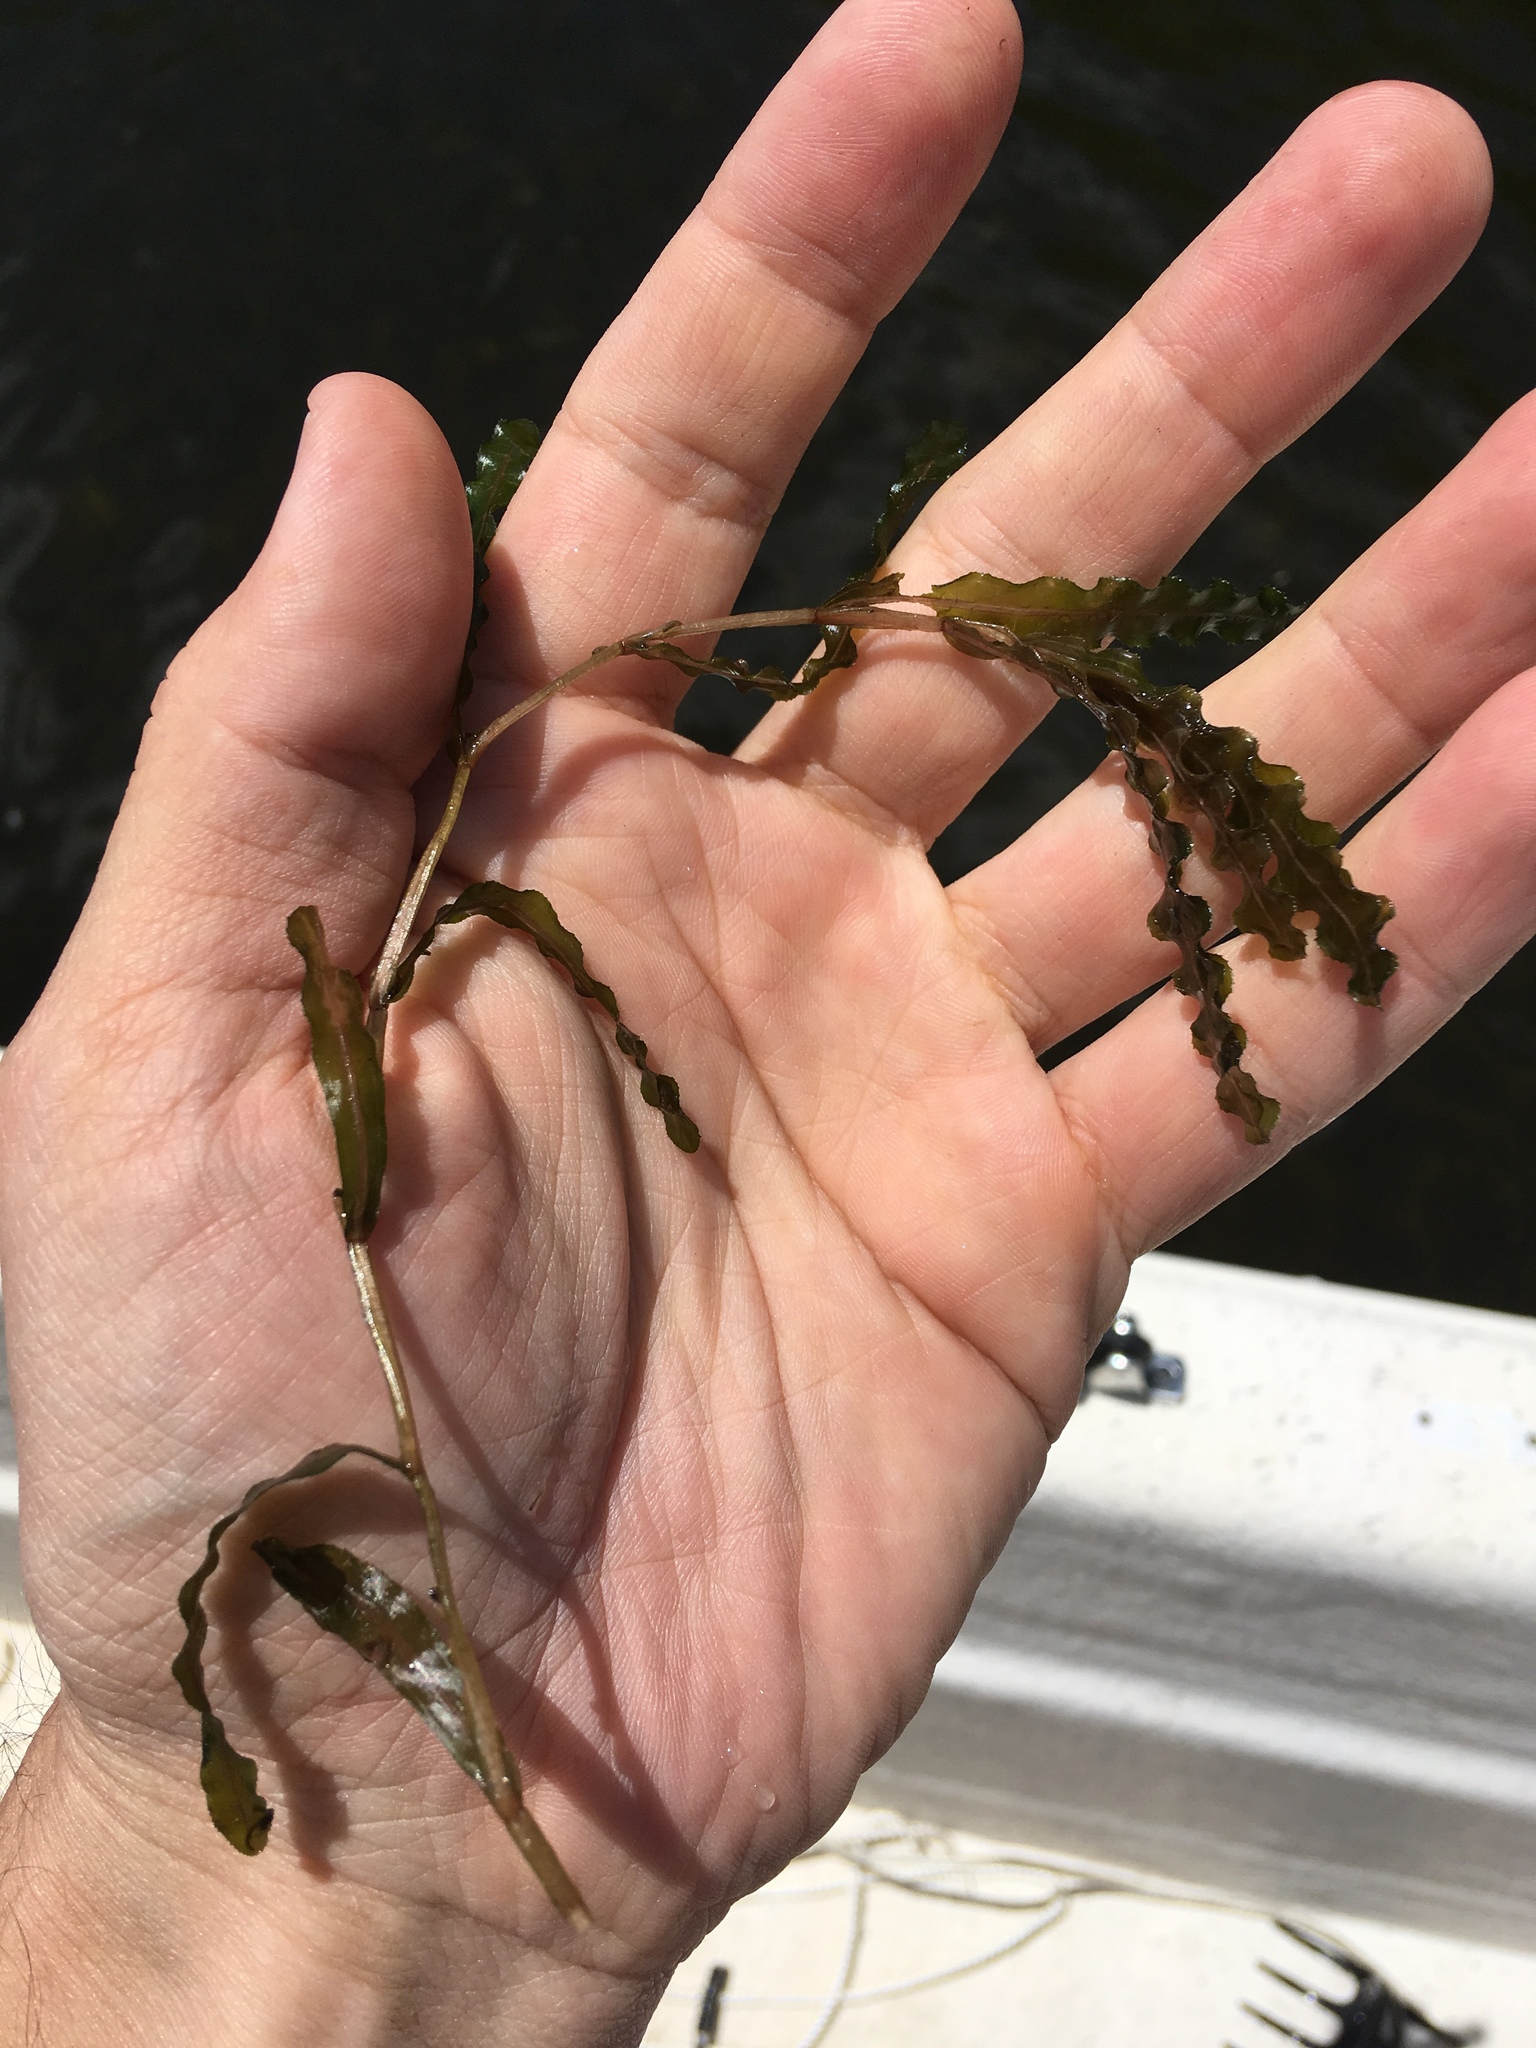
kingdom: Plantae
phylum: Tracheophyta
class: Liliopsida
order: Alismatales
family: Potamogetonaceae
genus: Potamogeton
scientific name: Potamogeton crispus
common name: Curled pondweed
